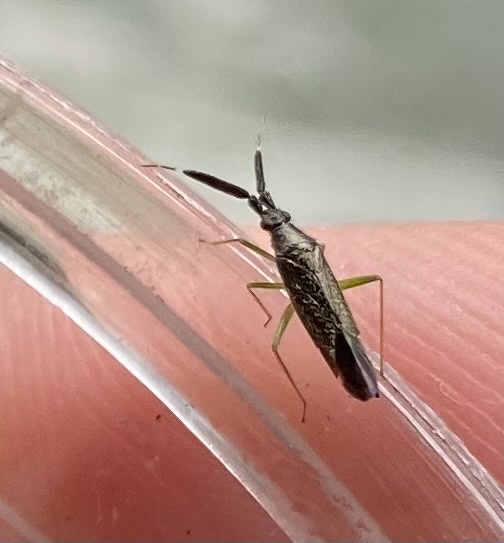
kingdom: Animalia
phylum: Arthropoda
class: Insecta
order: Hemiptera
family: Miridae
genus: Heterotoma
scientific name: Heterotoma planicornis
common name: Plant bug
